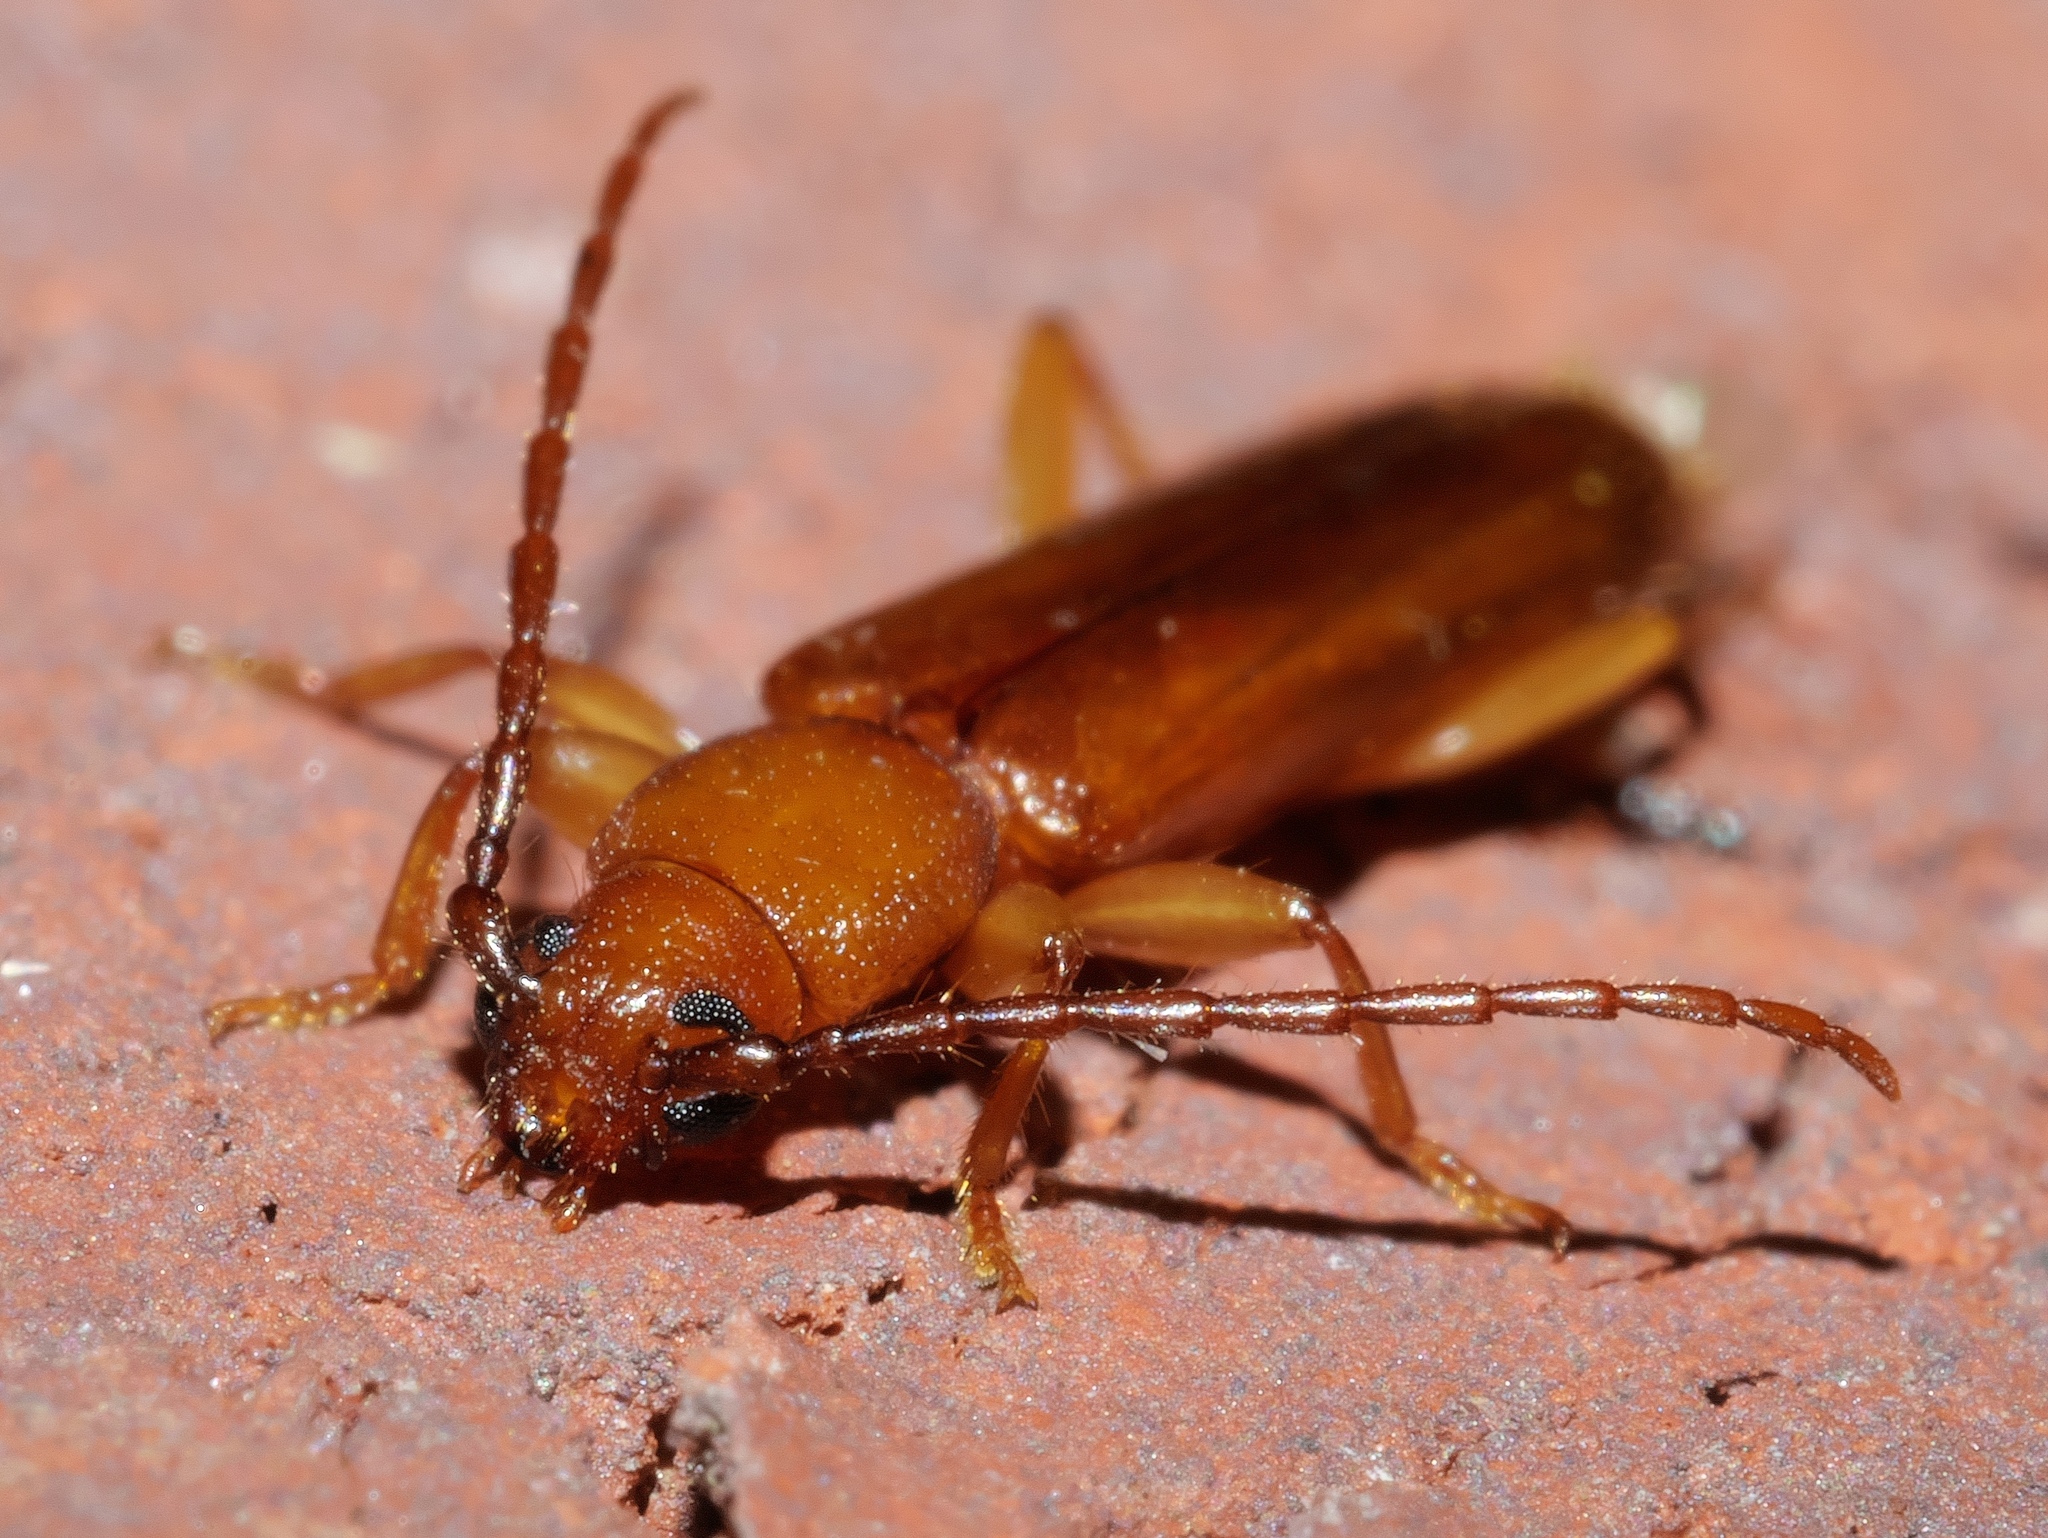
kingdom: Animalia
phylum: Arthropoda
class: Insecta
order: Coleoptera
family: Cerambycidae
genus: Smodicum
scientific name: Smodicum cucujiforme
